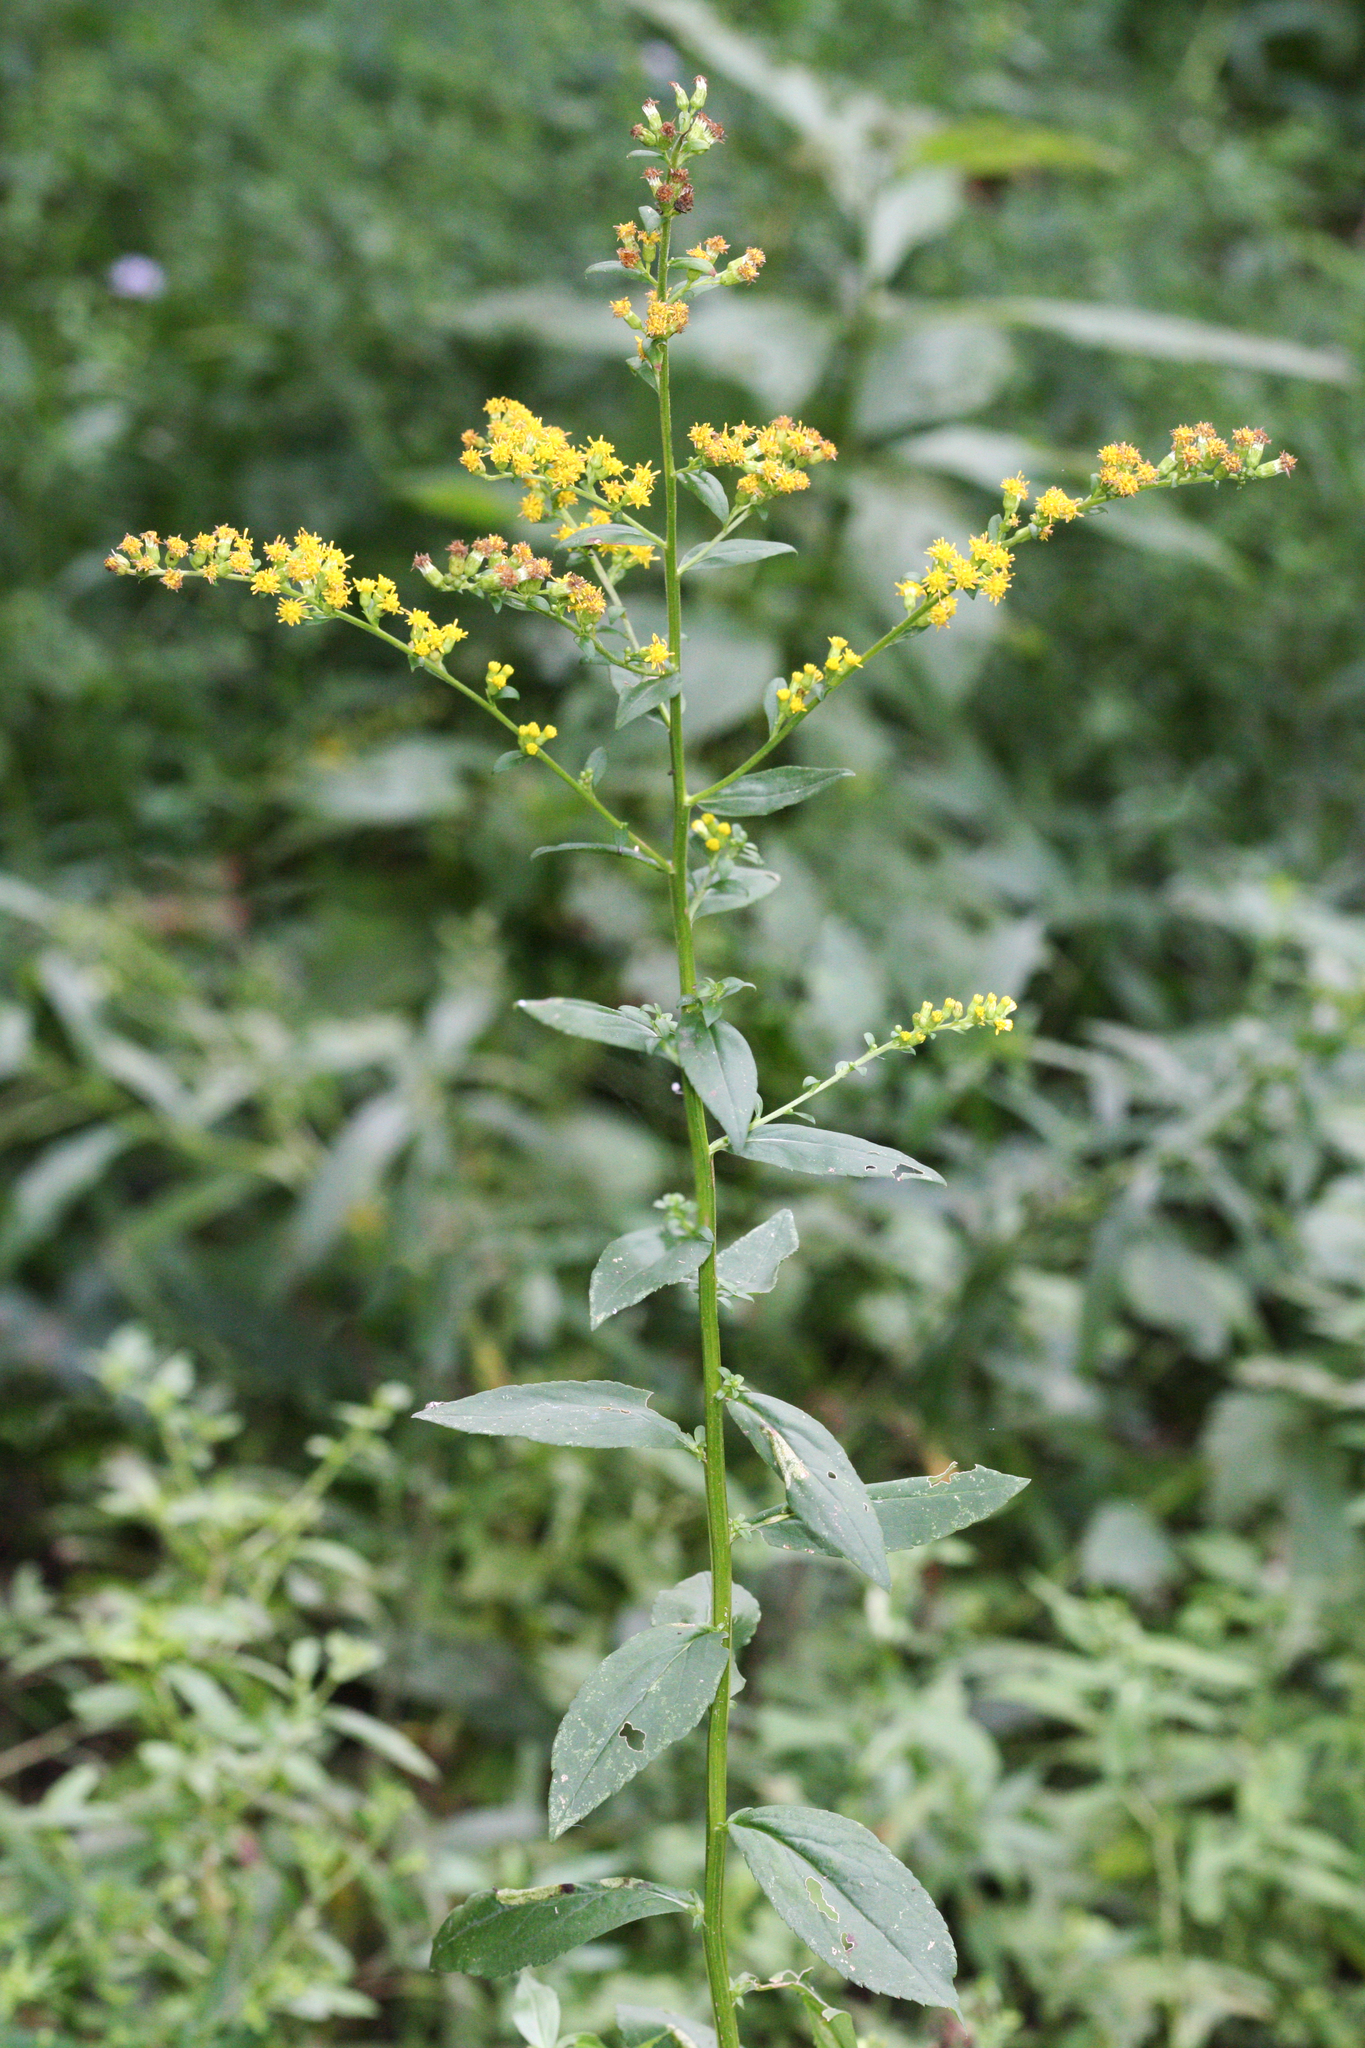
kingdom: Plantae
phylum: Tracheophyta
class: Magnoliopsida
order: Asterales
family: Asteraceae
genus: Solidago
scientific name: Solidago patula
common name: Rough-leaf goldenrod
